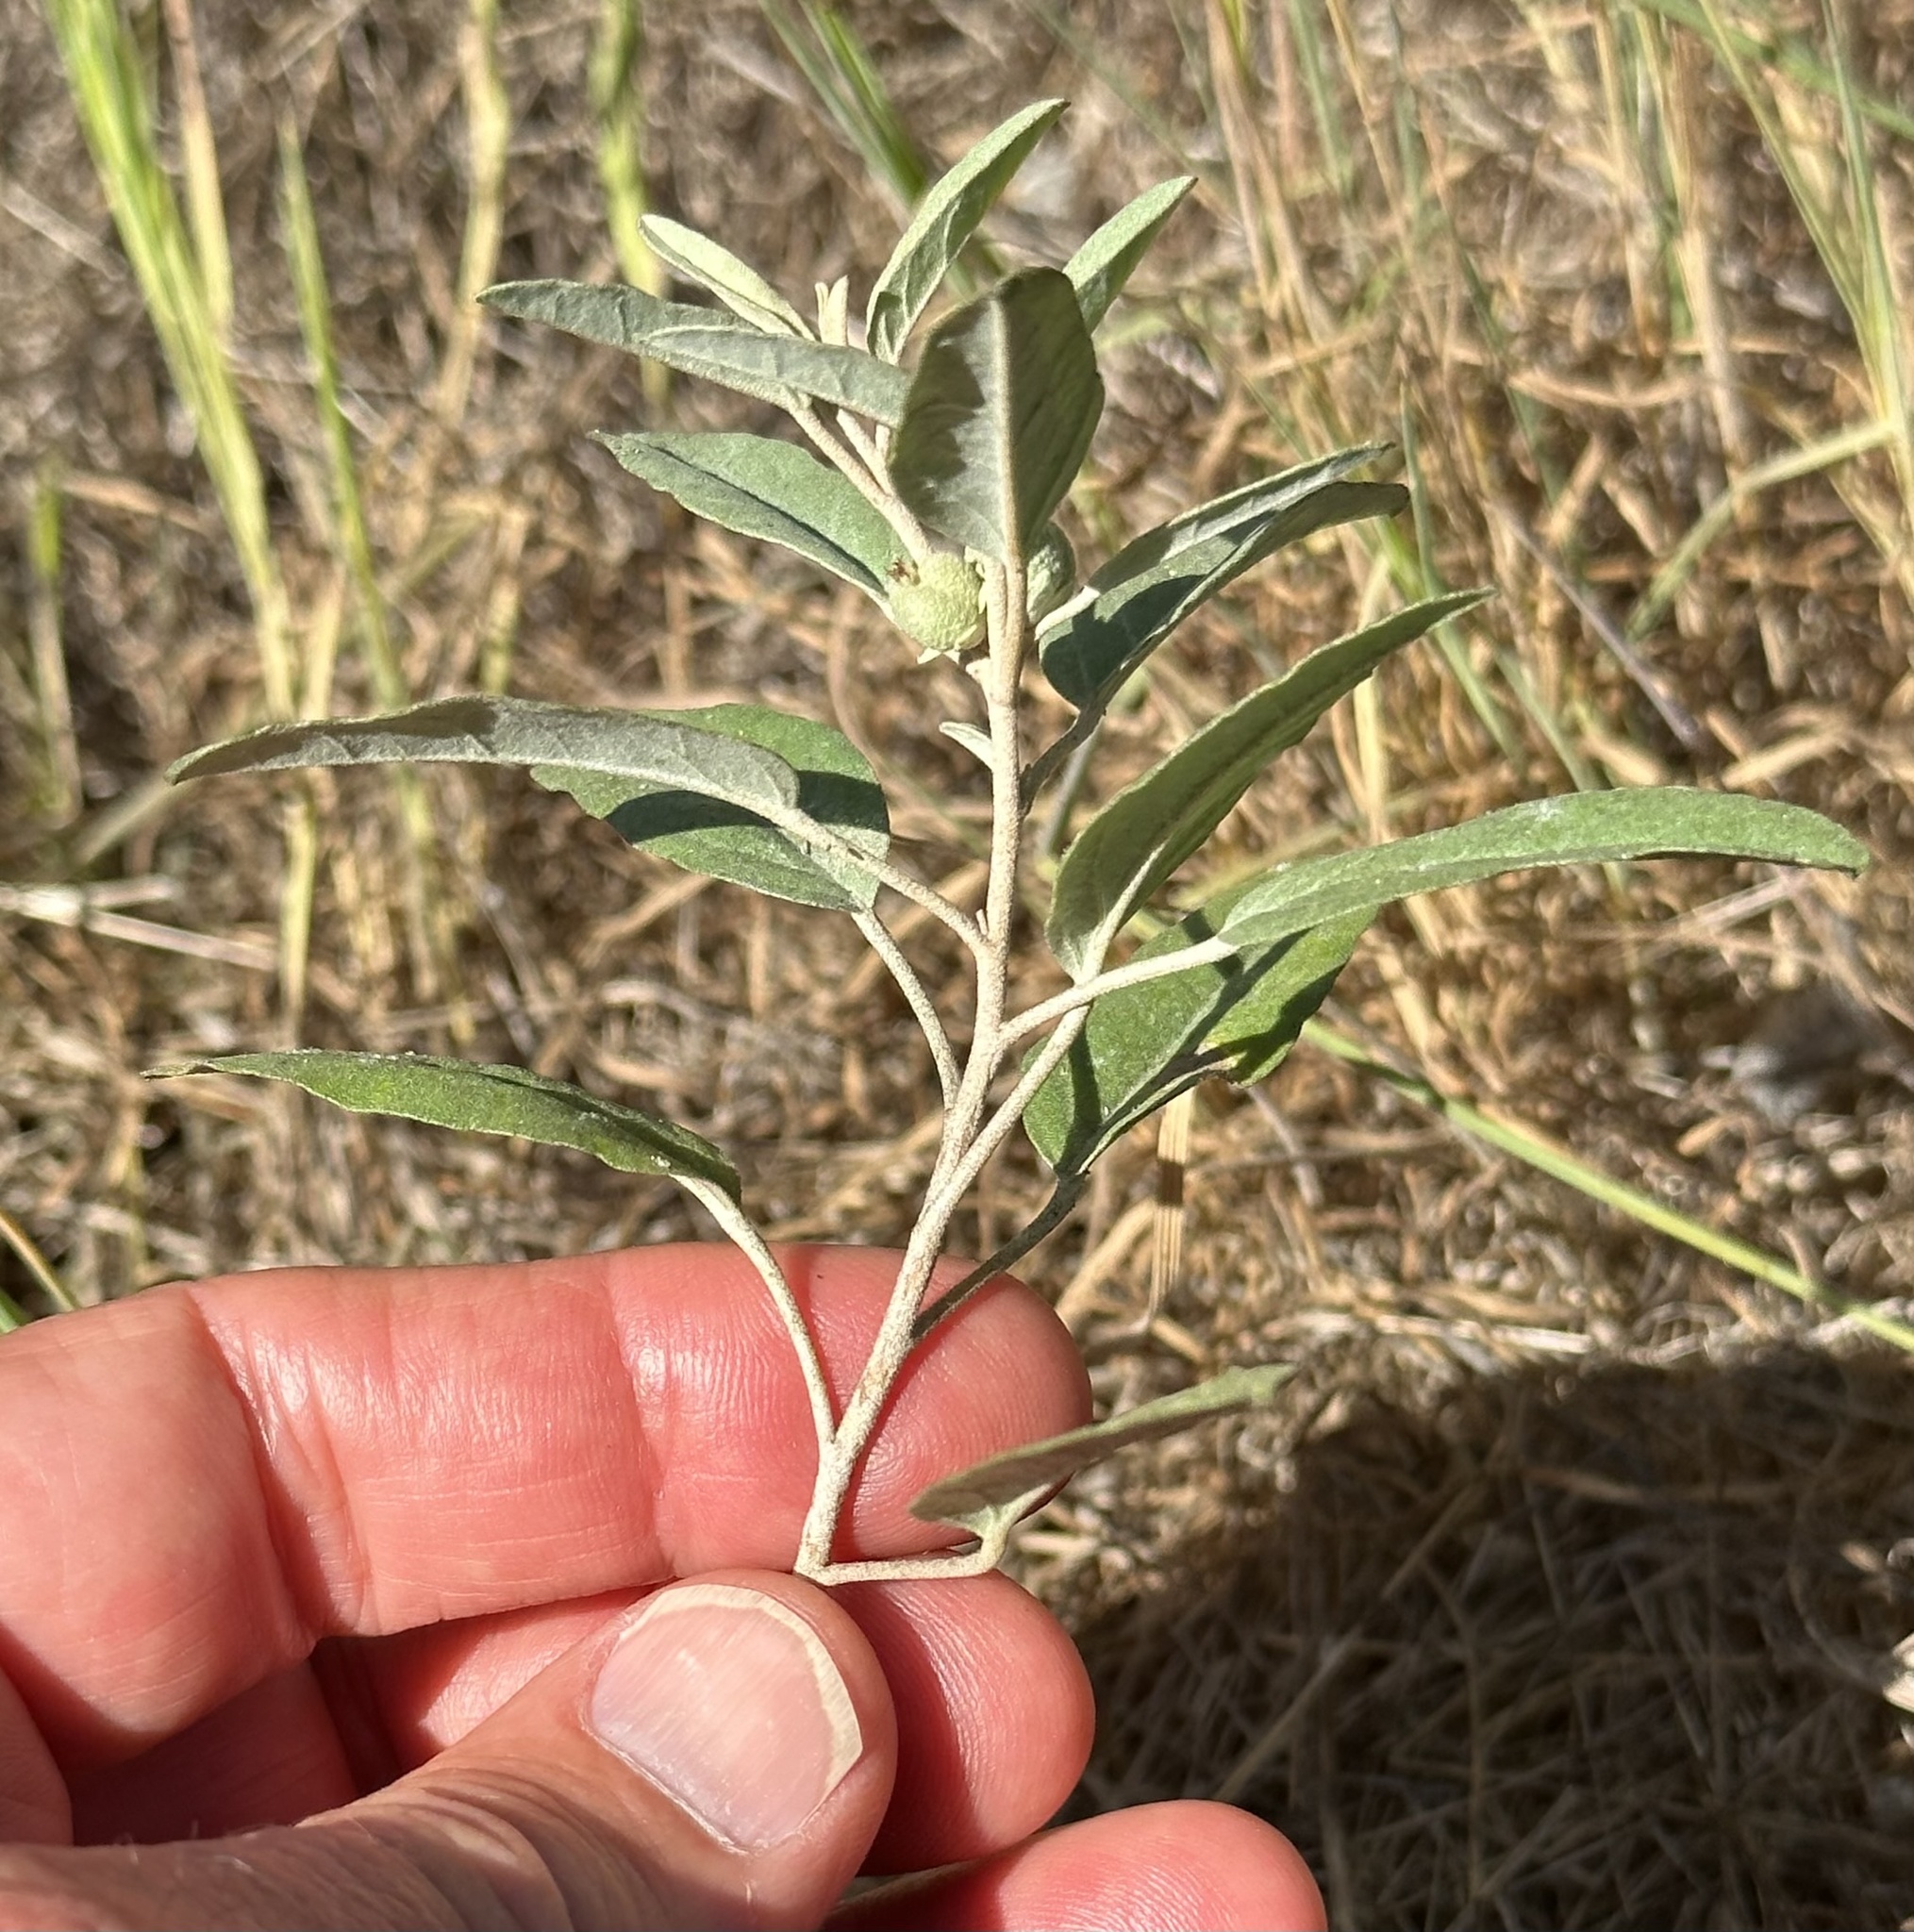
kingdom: Plantae
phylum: Tracheophyta
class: Magnoliopsida
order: Malpighiales
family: Euphorbiaceae
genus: Croton
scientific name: Croton californicus
